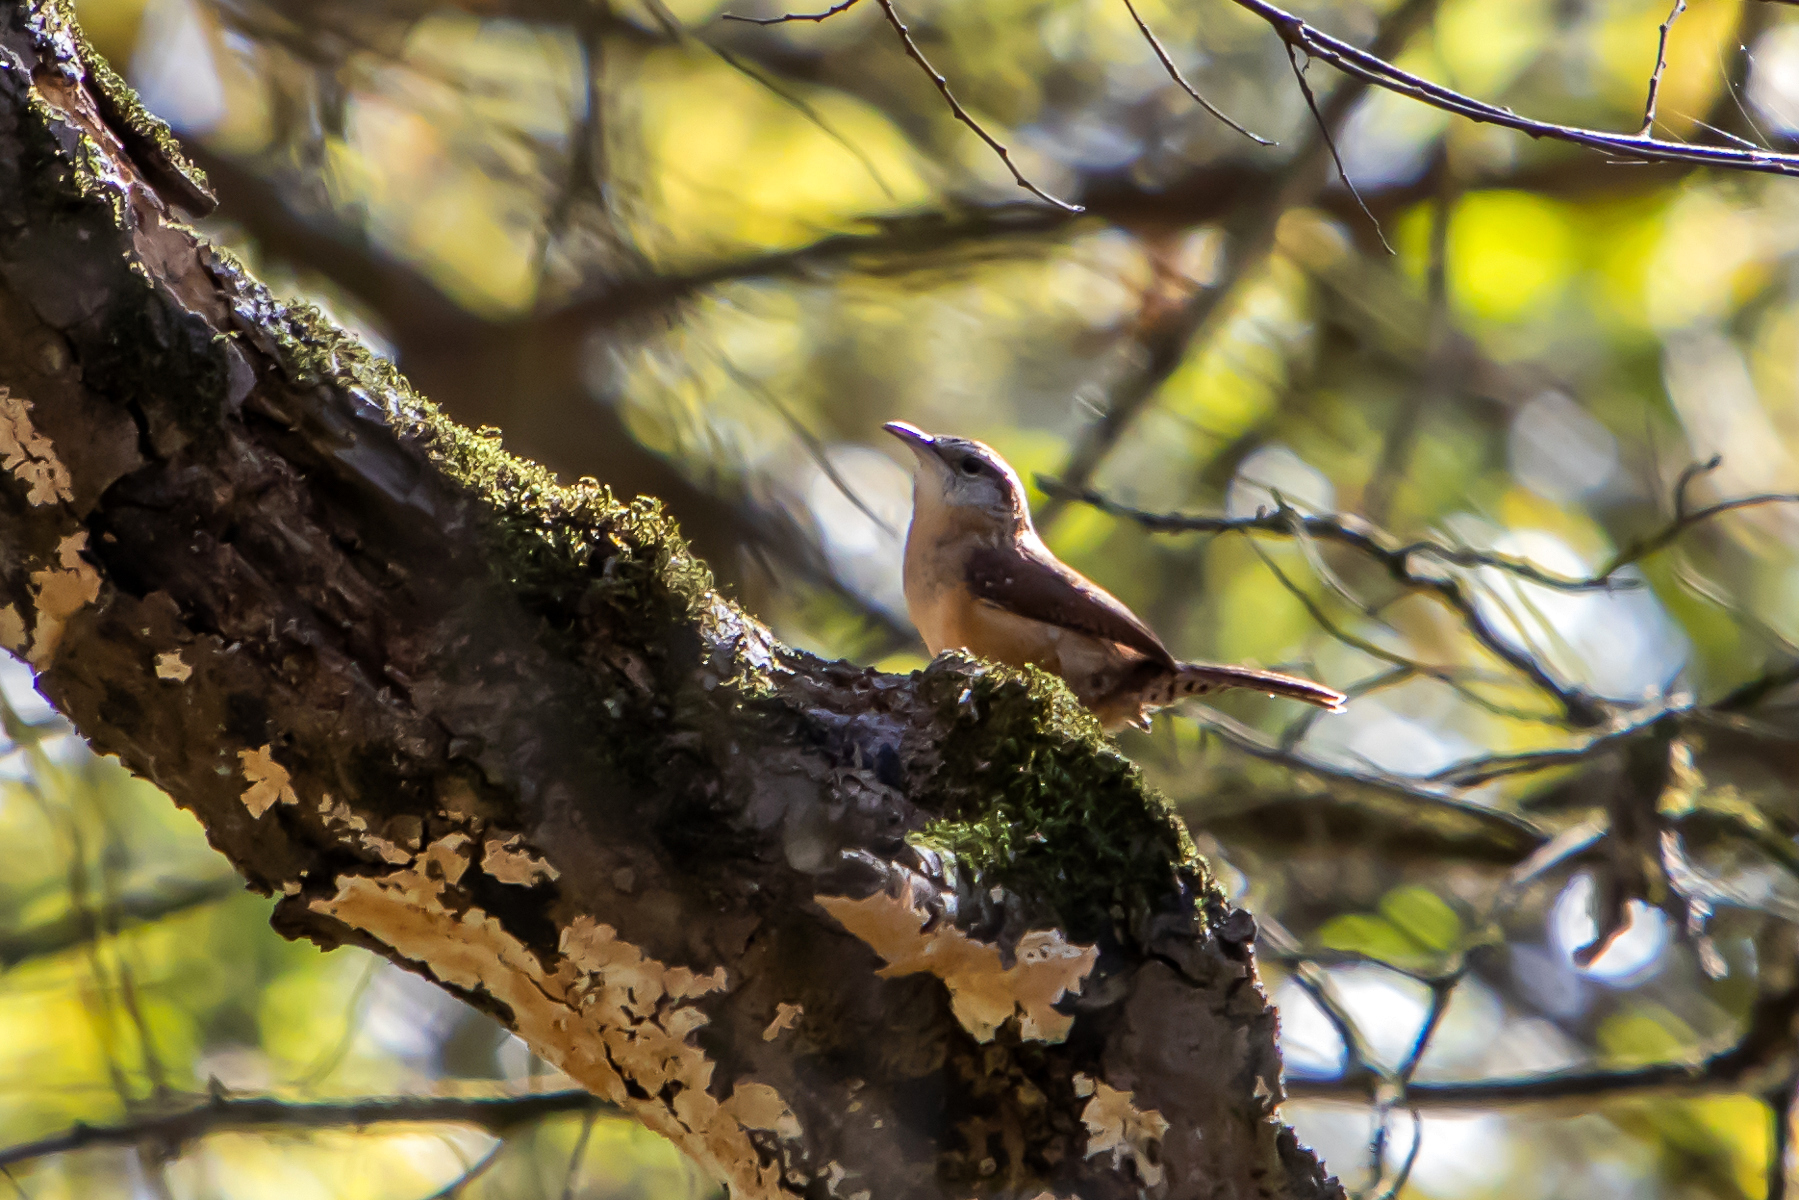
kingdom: Animalia
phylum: Chordata
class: Aves
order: Passeriformes
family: Troglodytidae
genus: Thryothorus
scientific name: Thryothorus ludovicianus
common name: Carolina wren
